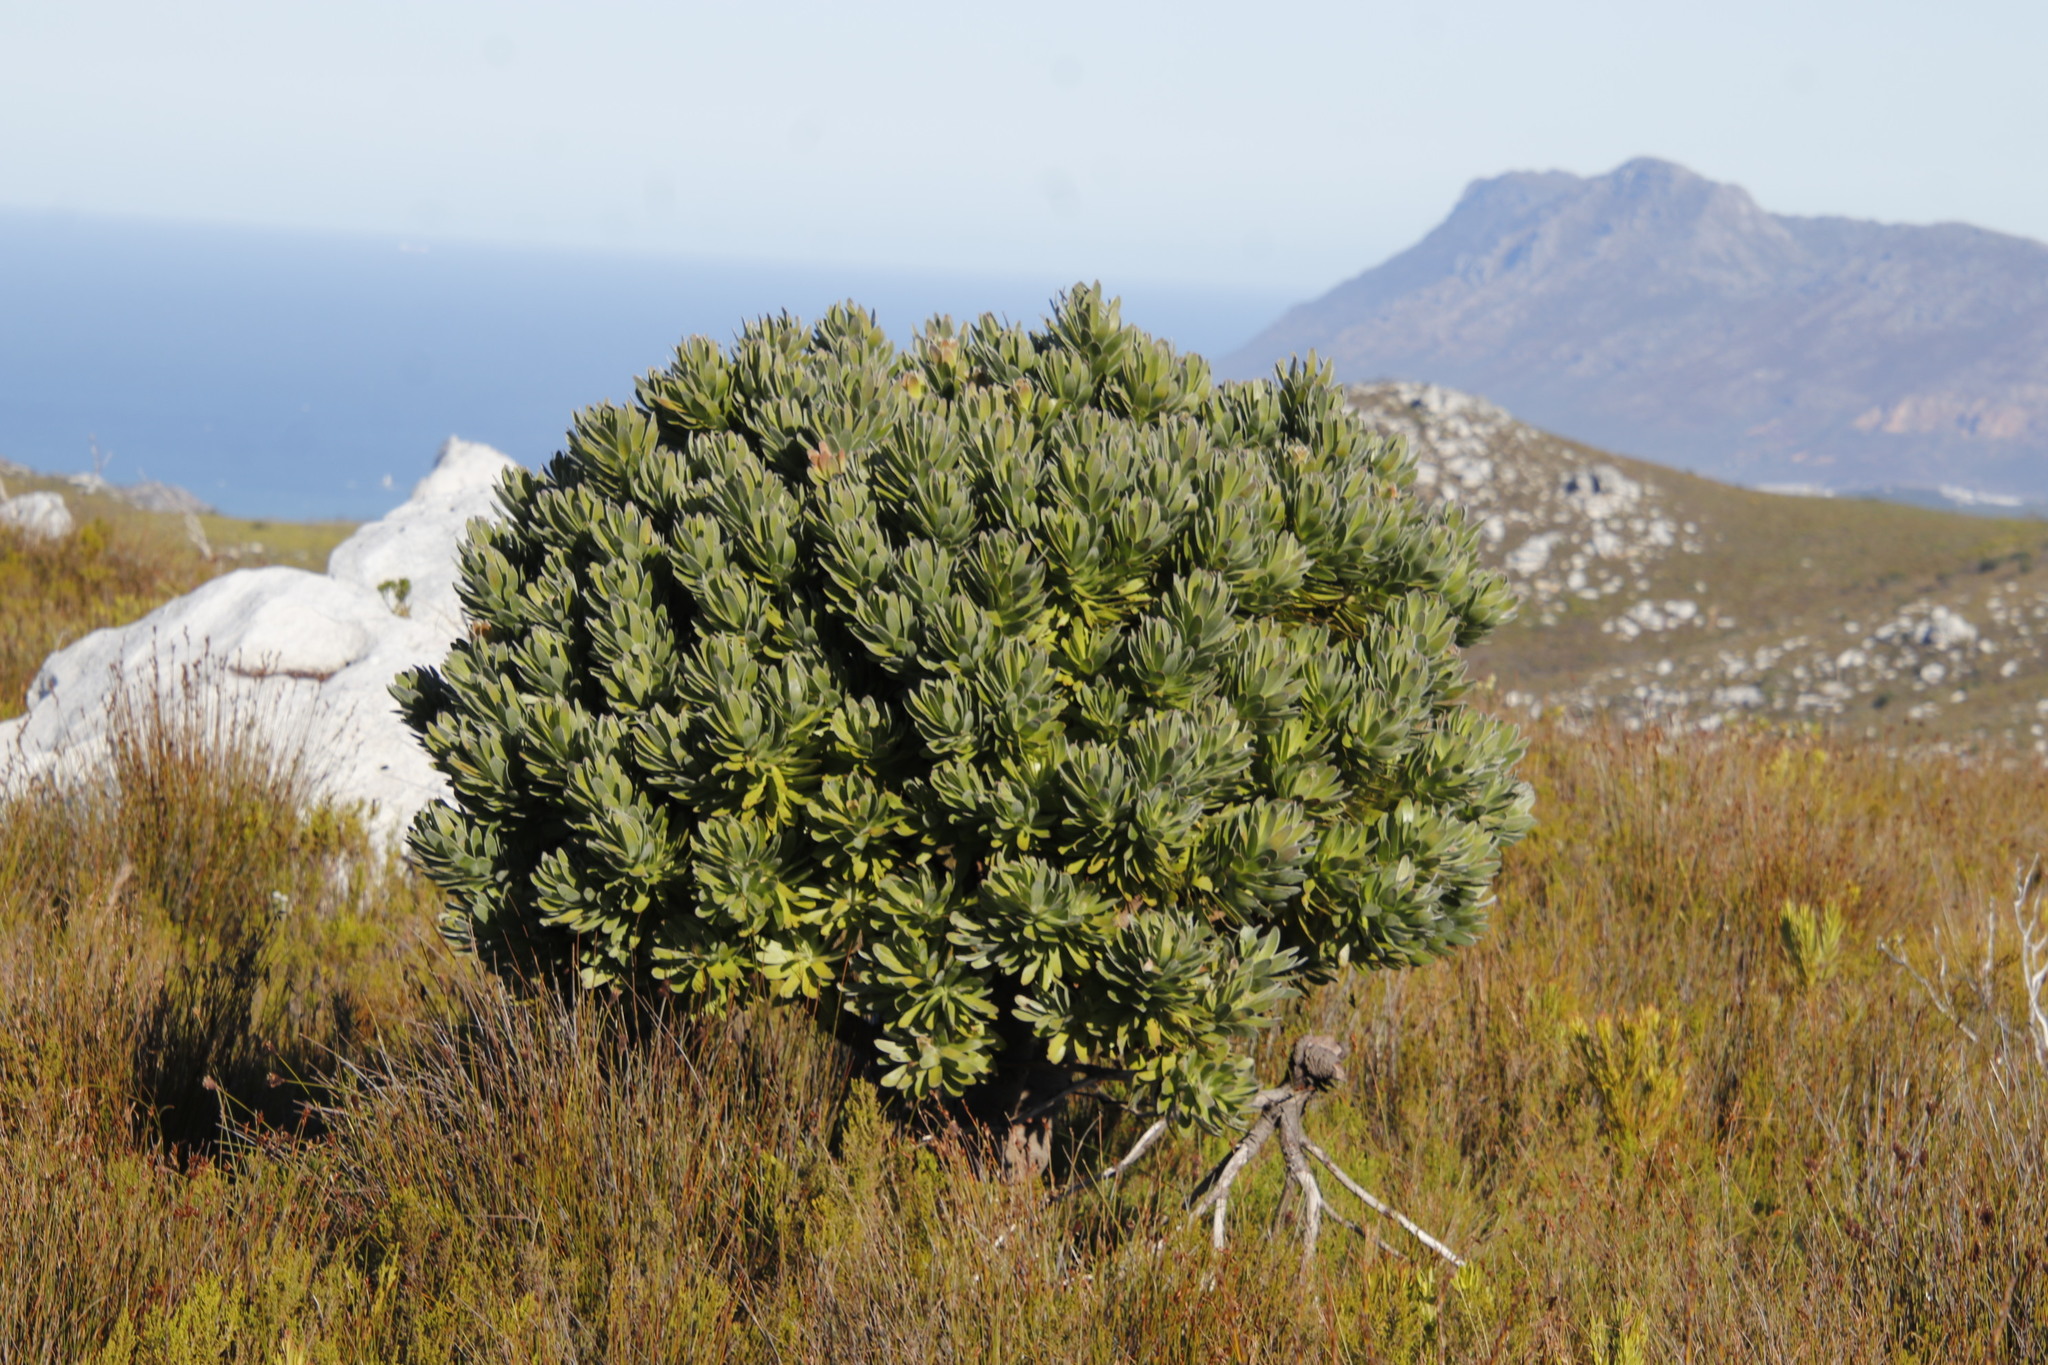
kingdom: Plantae
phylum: Tracheophyta
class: Magnoliopsida
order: Proteales
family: Proteaceae
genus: Mimetes
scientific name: Mimetes fimbriifolius
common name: Fringed bottlebrush
